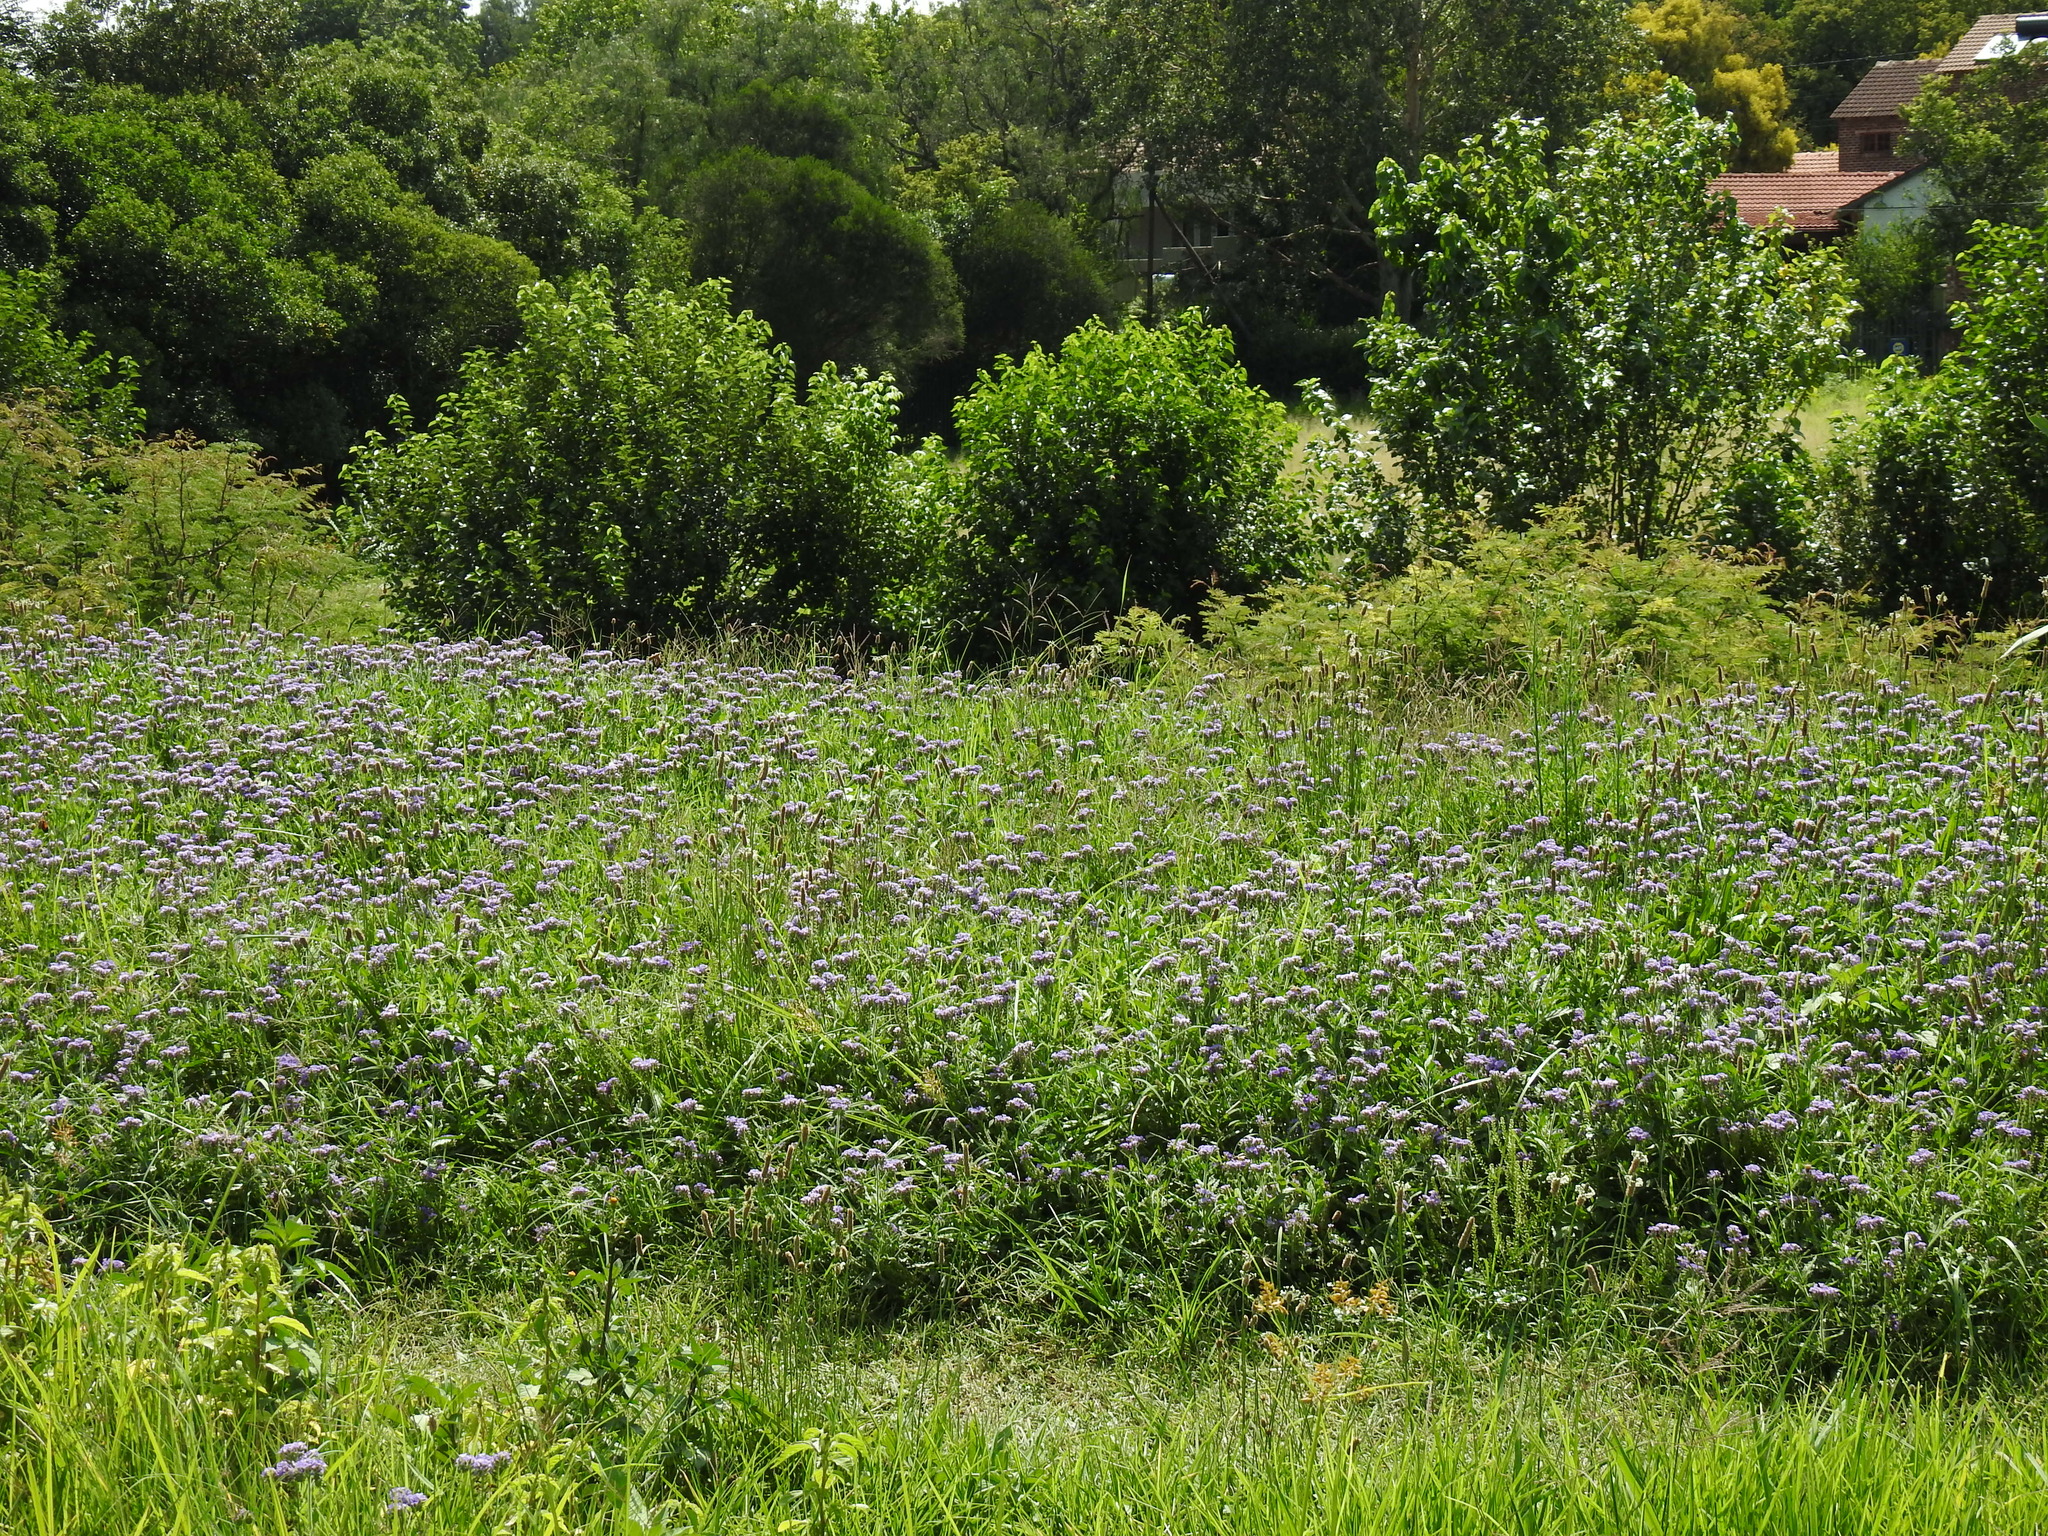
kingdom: Plantae
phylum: Tracheophyta
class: Magnoliopsida
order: Boraginales
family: Heliotropiaceae
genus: Heliotropium
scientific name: Heliotropium amplexicaule
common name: Clasping heliotrope
